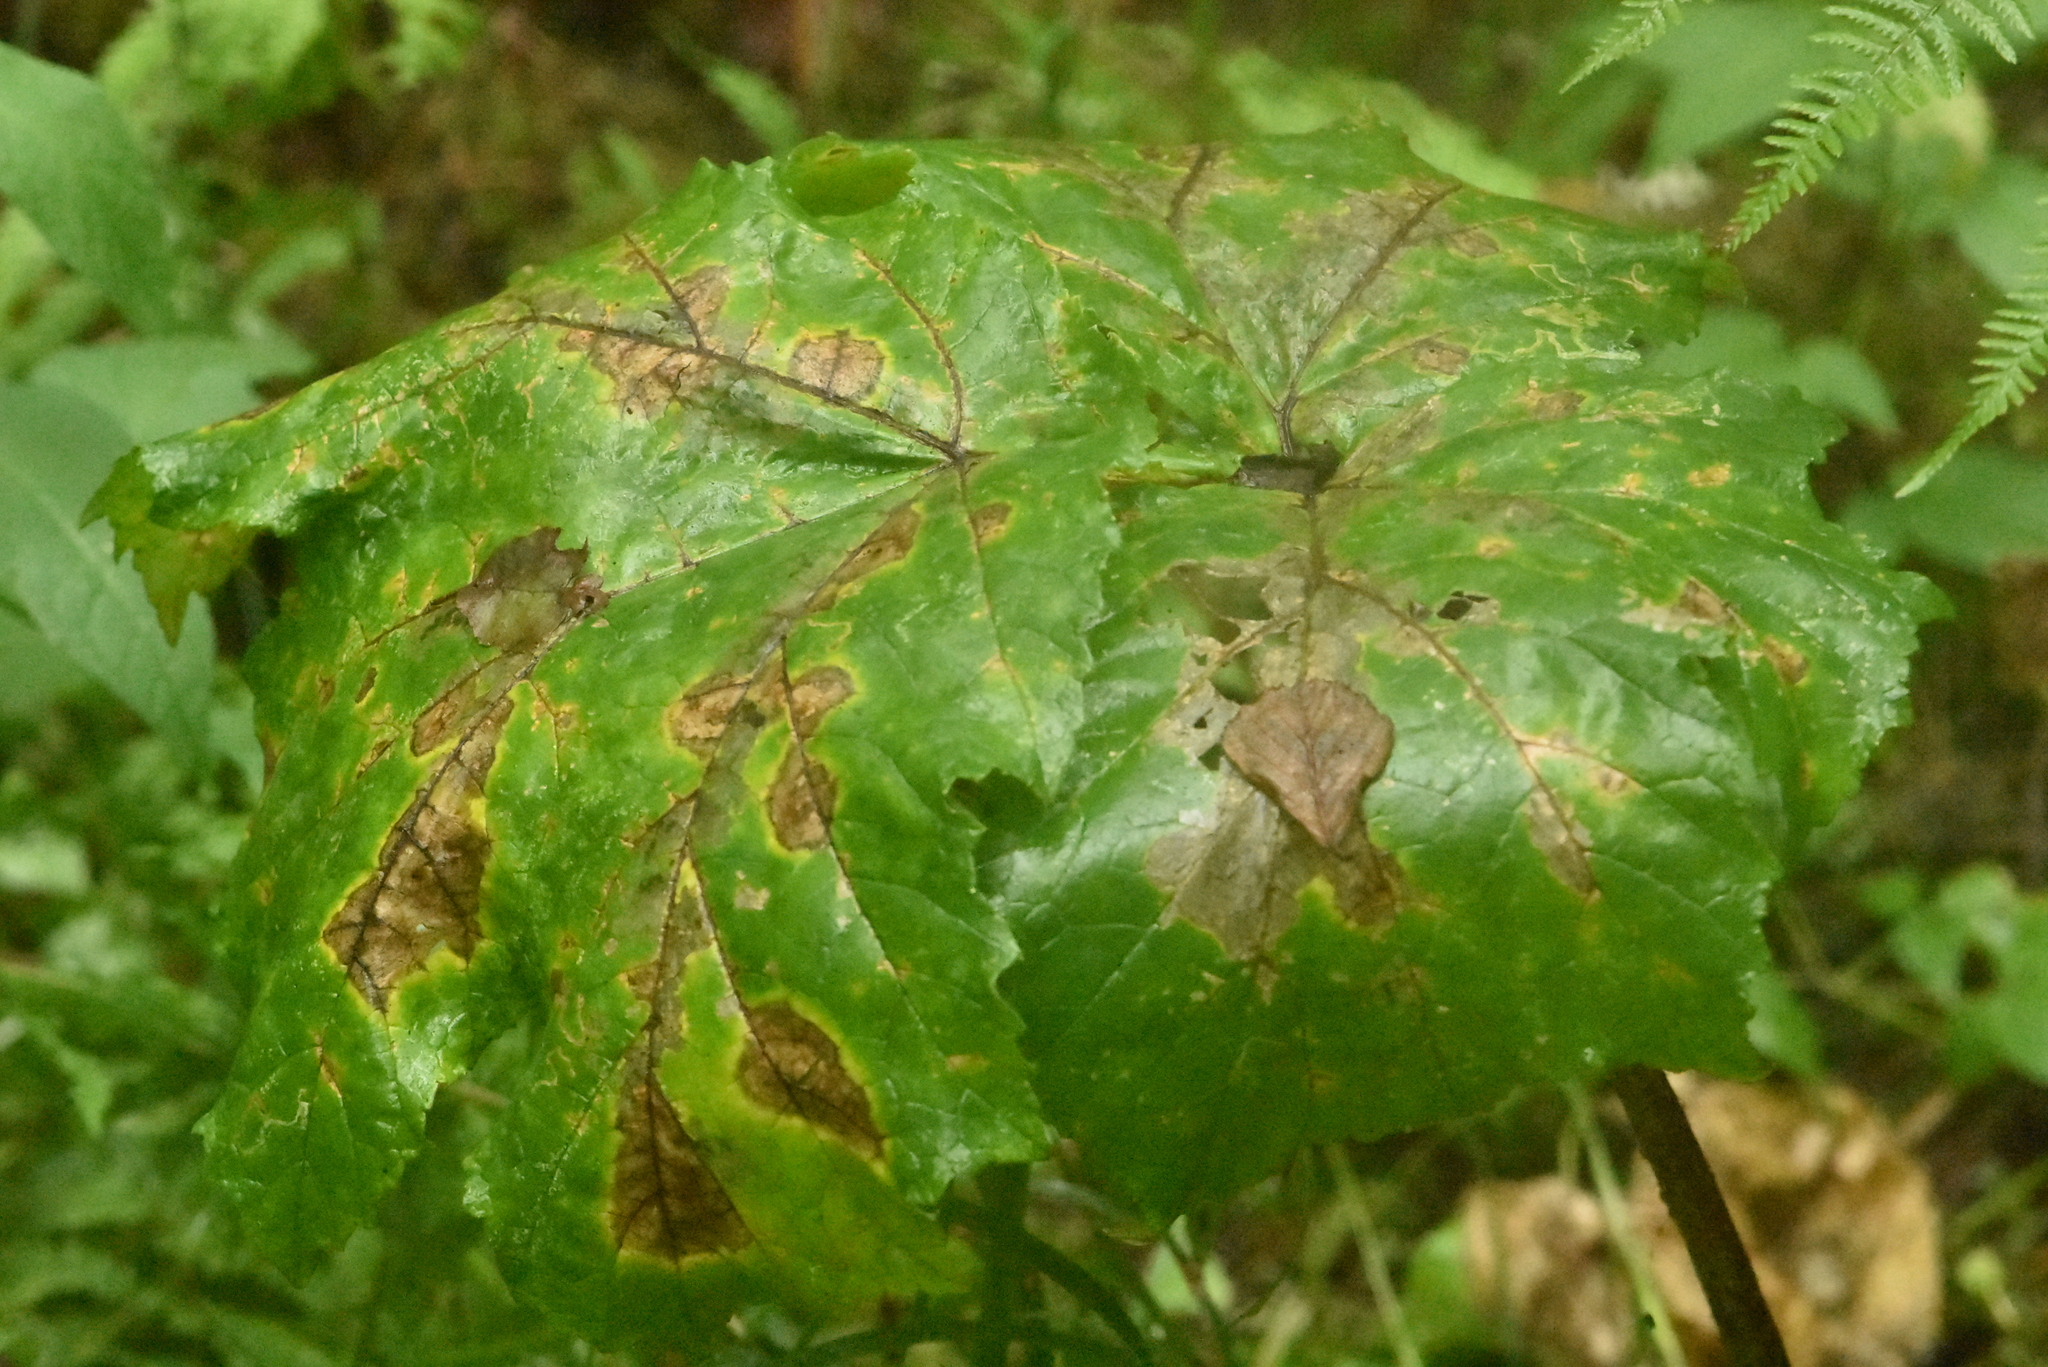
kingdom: Plantae
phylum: Tracheophyta
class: Magnoliopsida
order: Apiales
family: Apiaceae
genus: Heracleum
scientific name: Heracleum sosnowskyi
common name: Sosnowsky's hogweed
